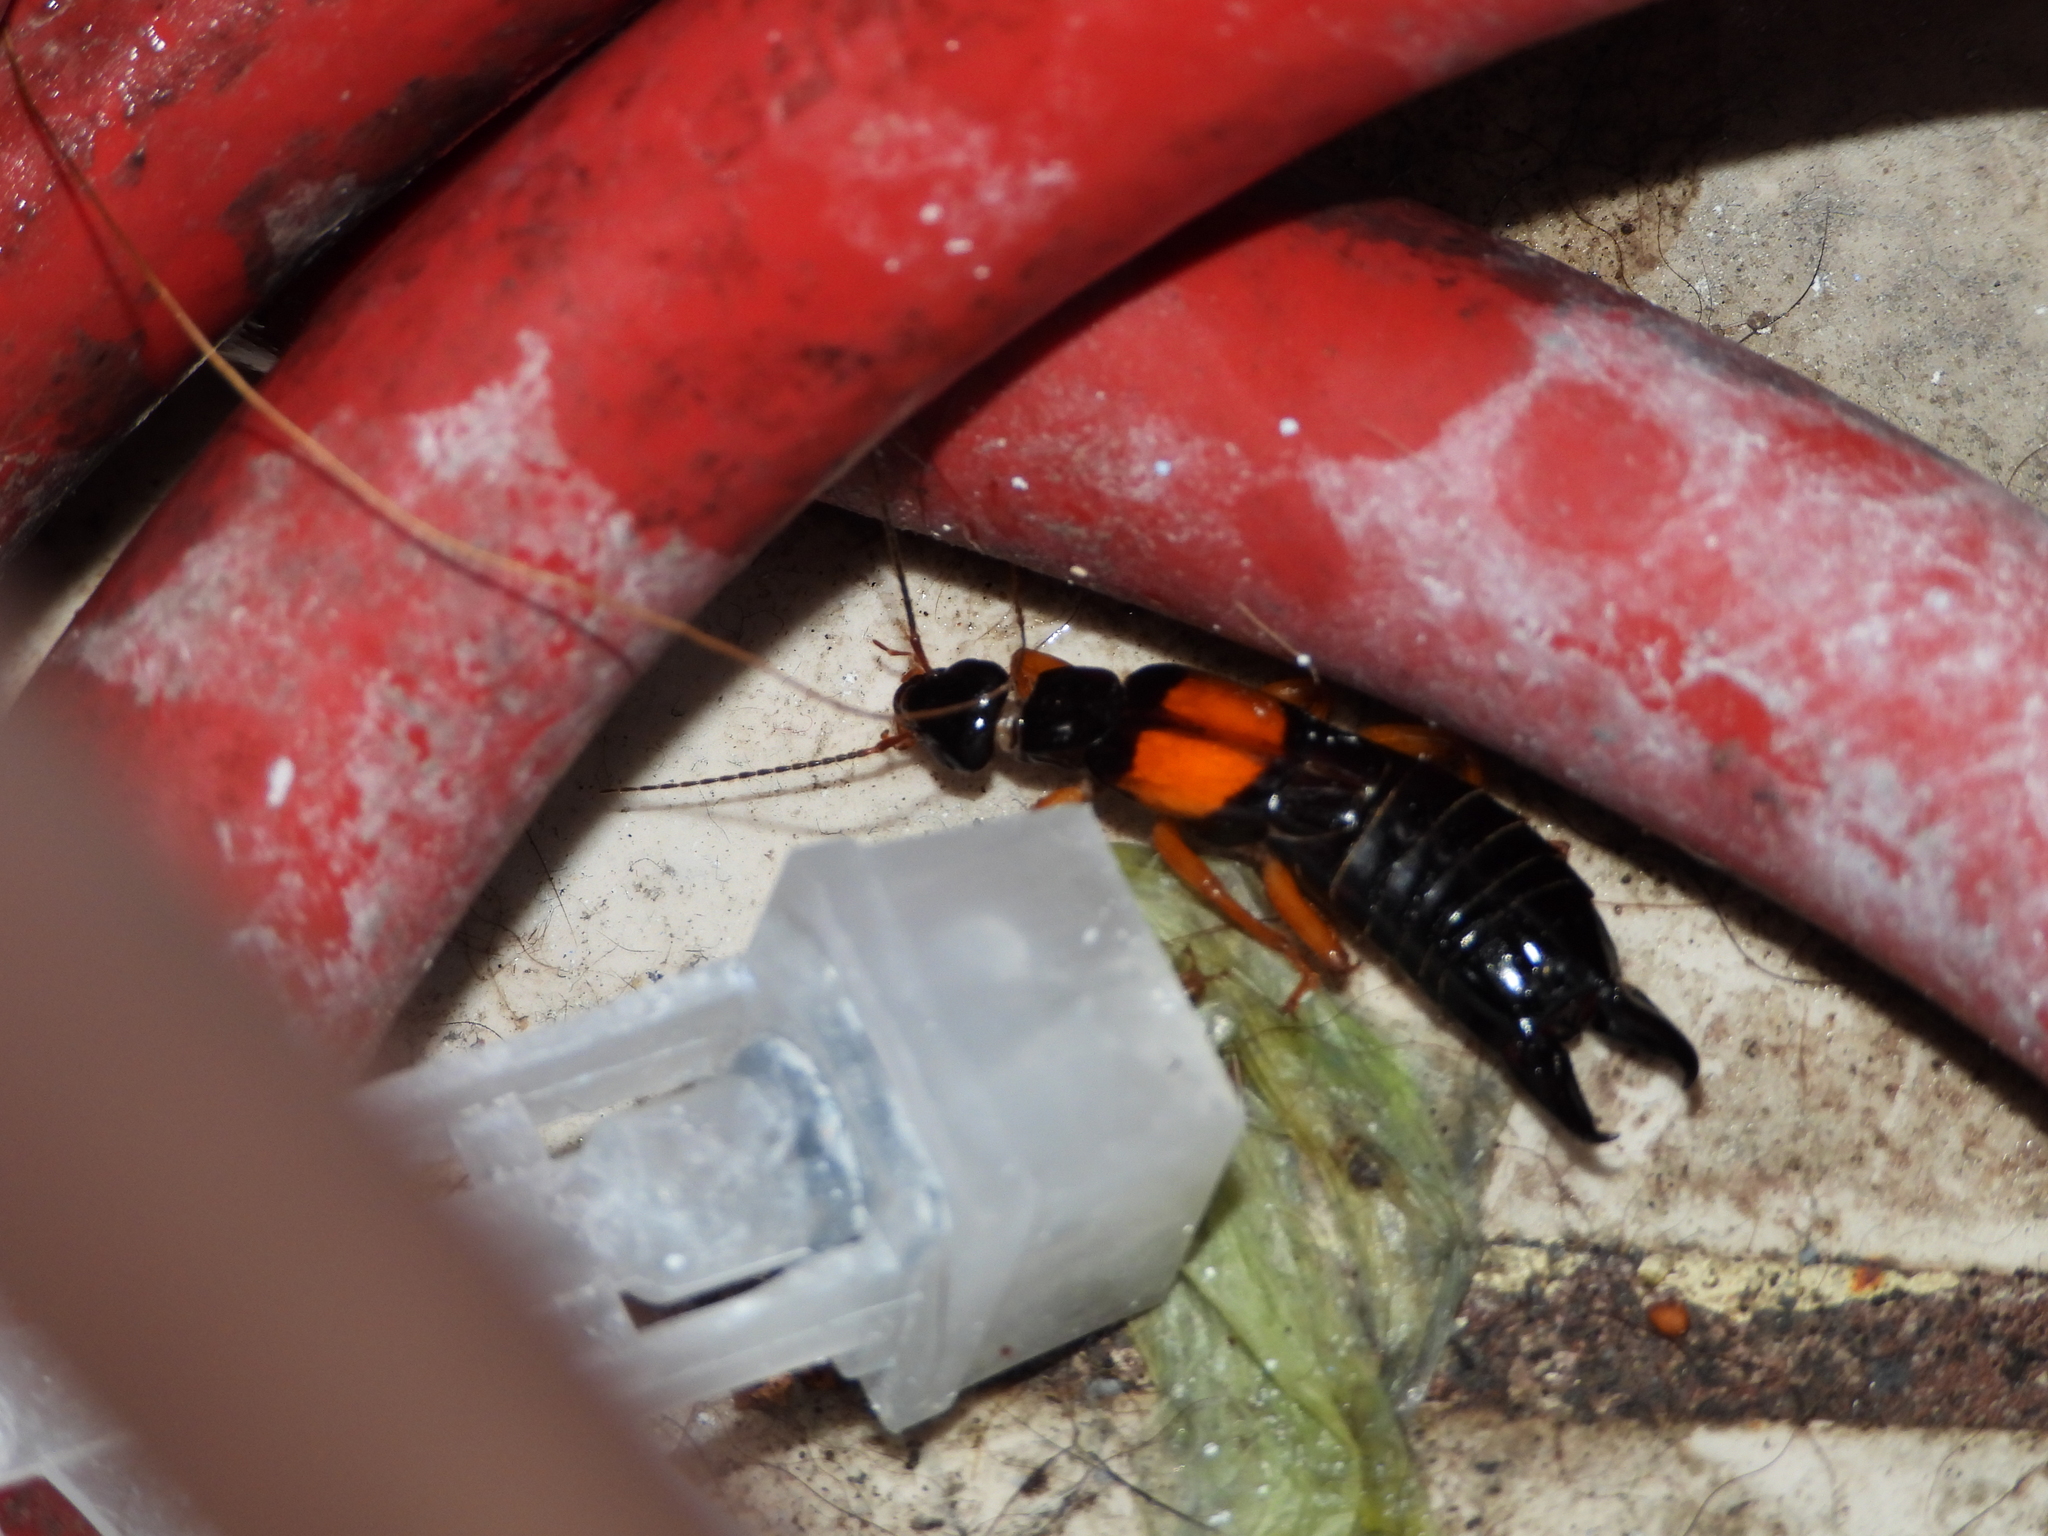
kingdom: Animalia
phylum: Arthropoda
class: Insecta
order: Dermaptera
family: Anisolabididae
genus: Carcinophora
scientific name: Carcinophora americana
